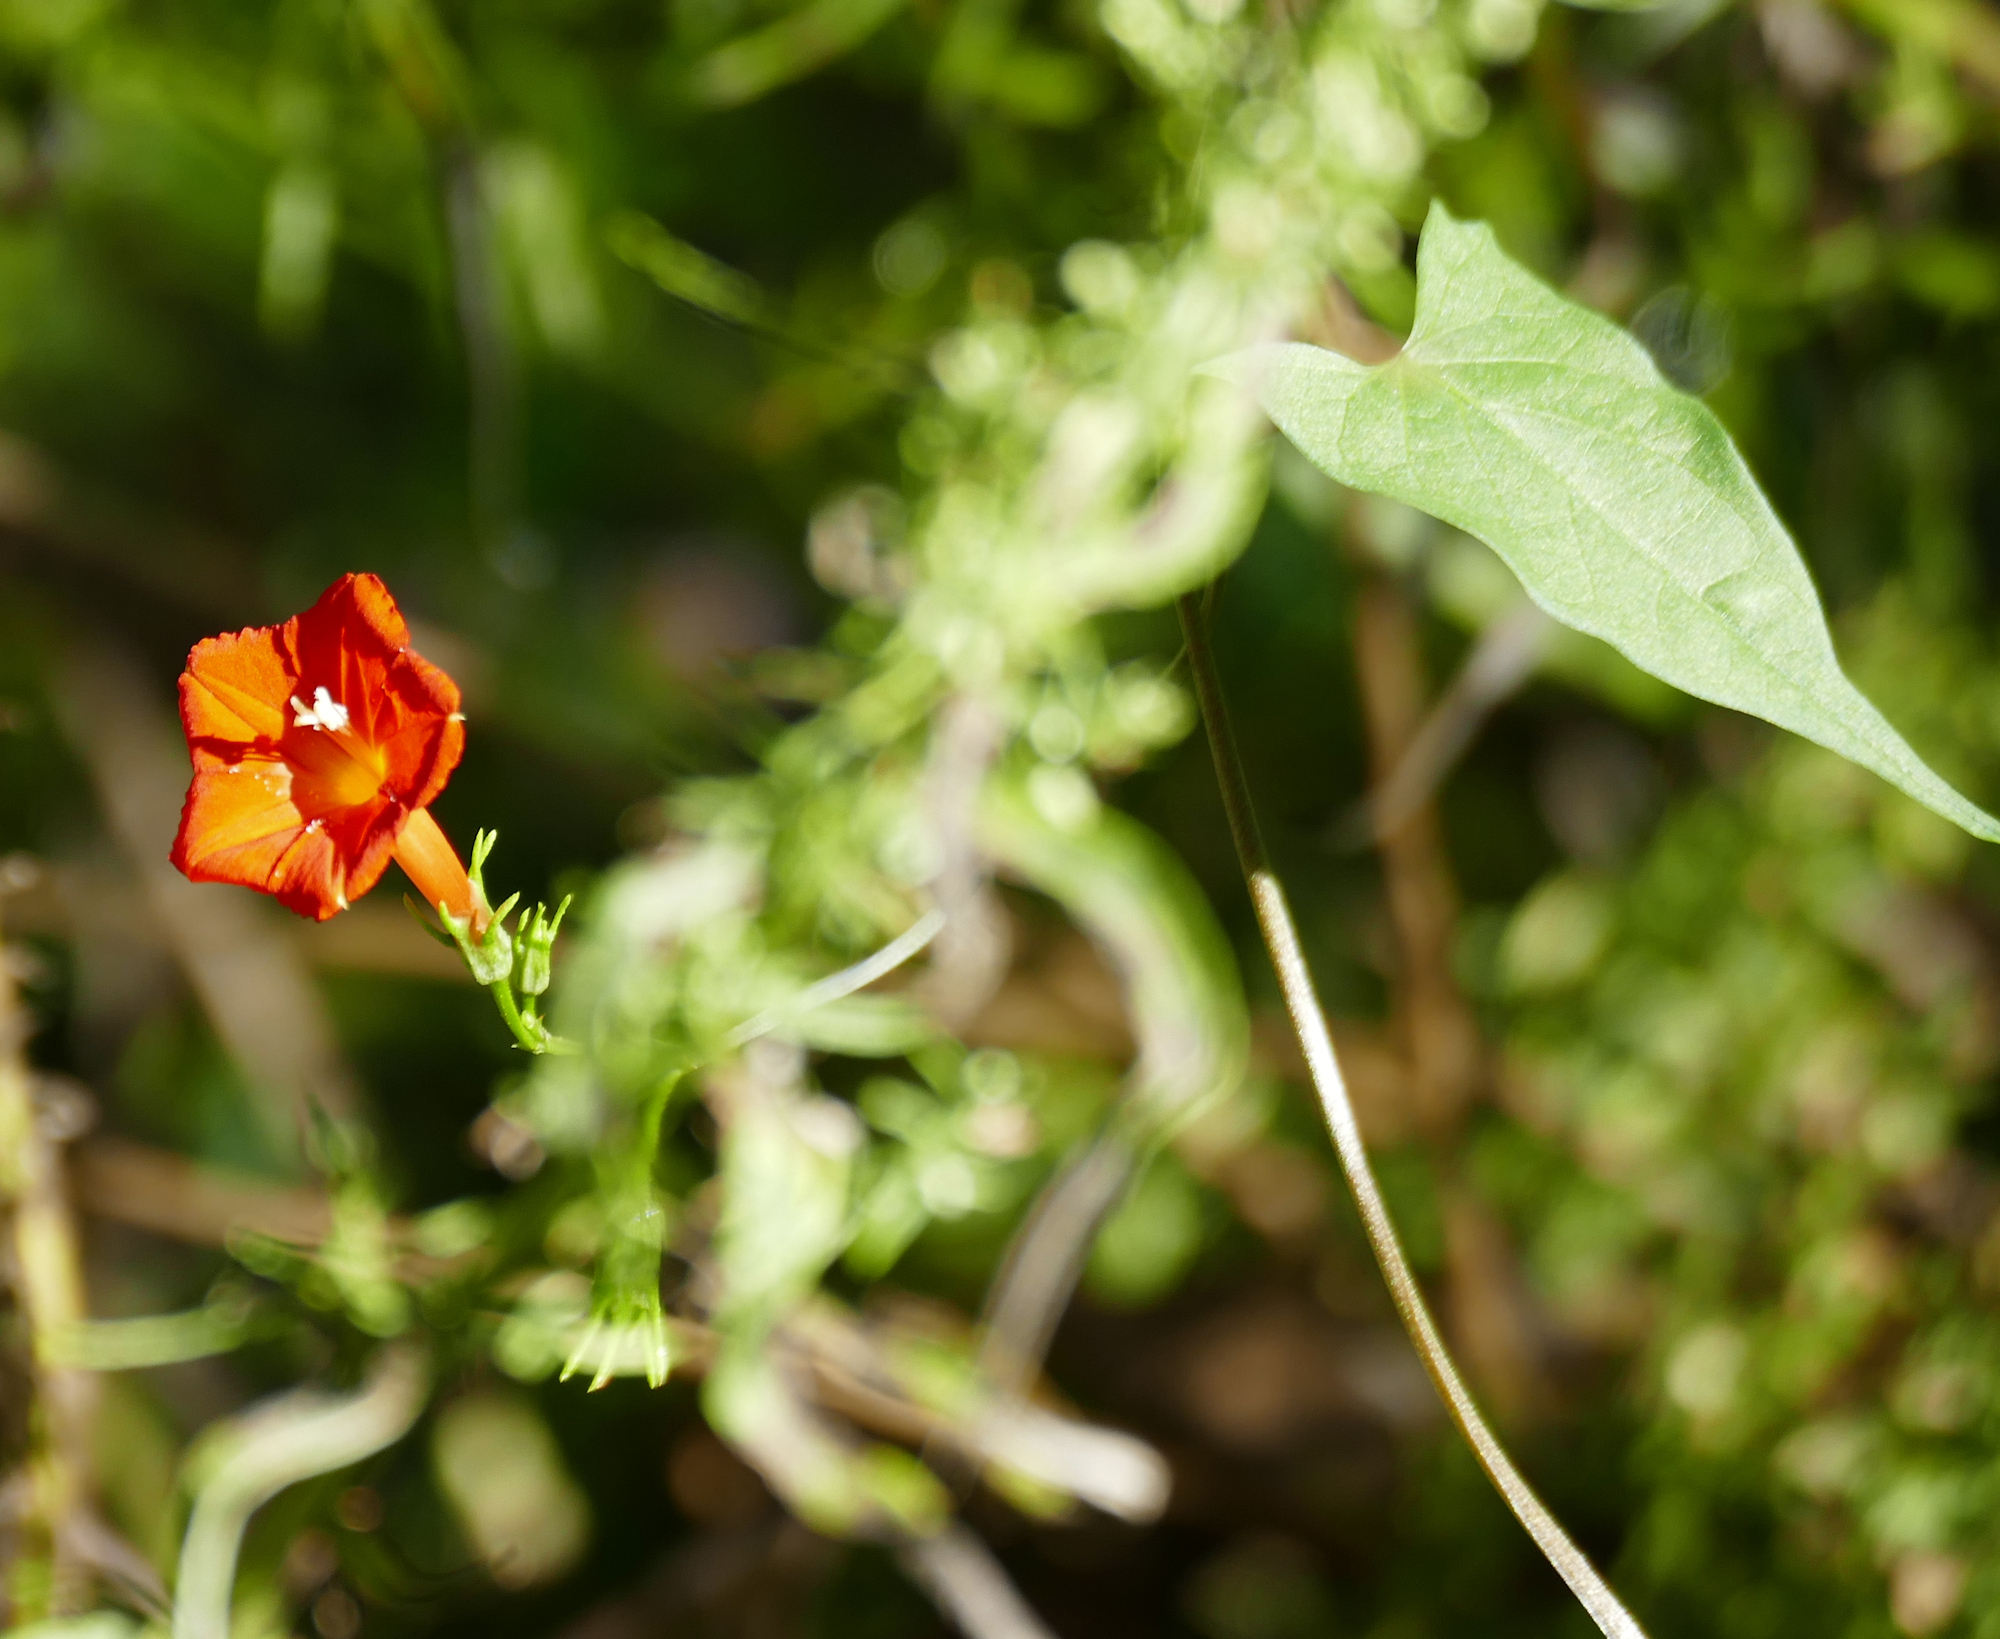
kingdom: Plantae
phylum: Tracheophyta
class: Magnoliopsida
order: Solanales
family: Convolvulaceae
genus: Ipomoea
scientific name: Ipomoea cristulata
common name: Trans-pecos morning-glory
